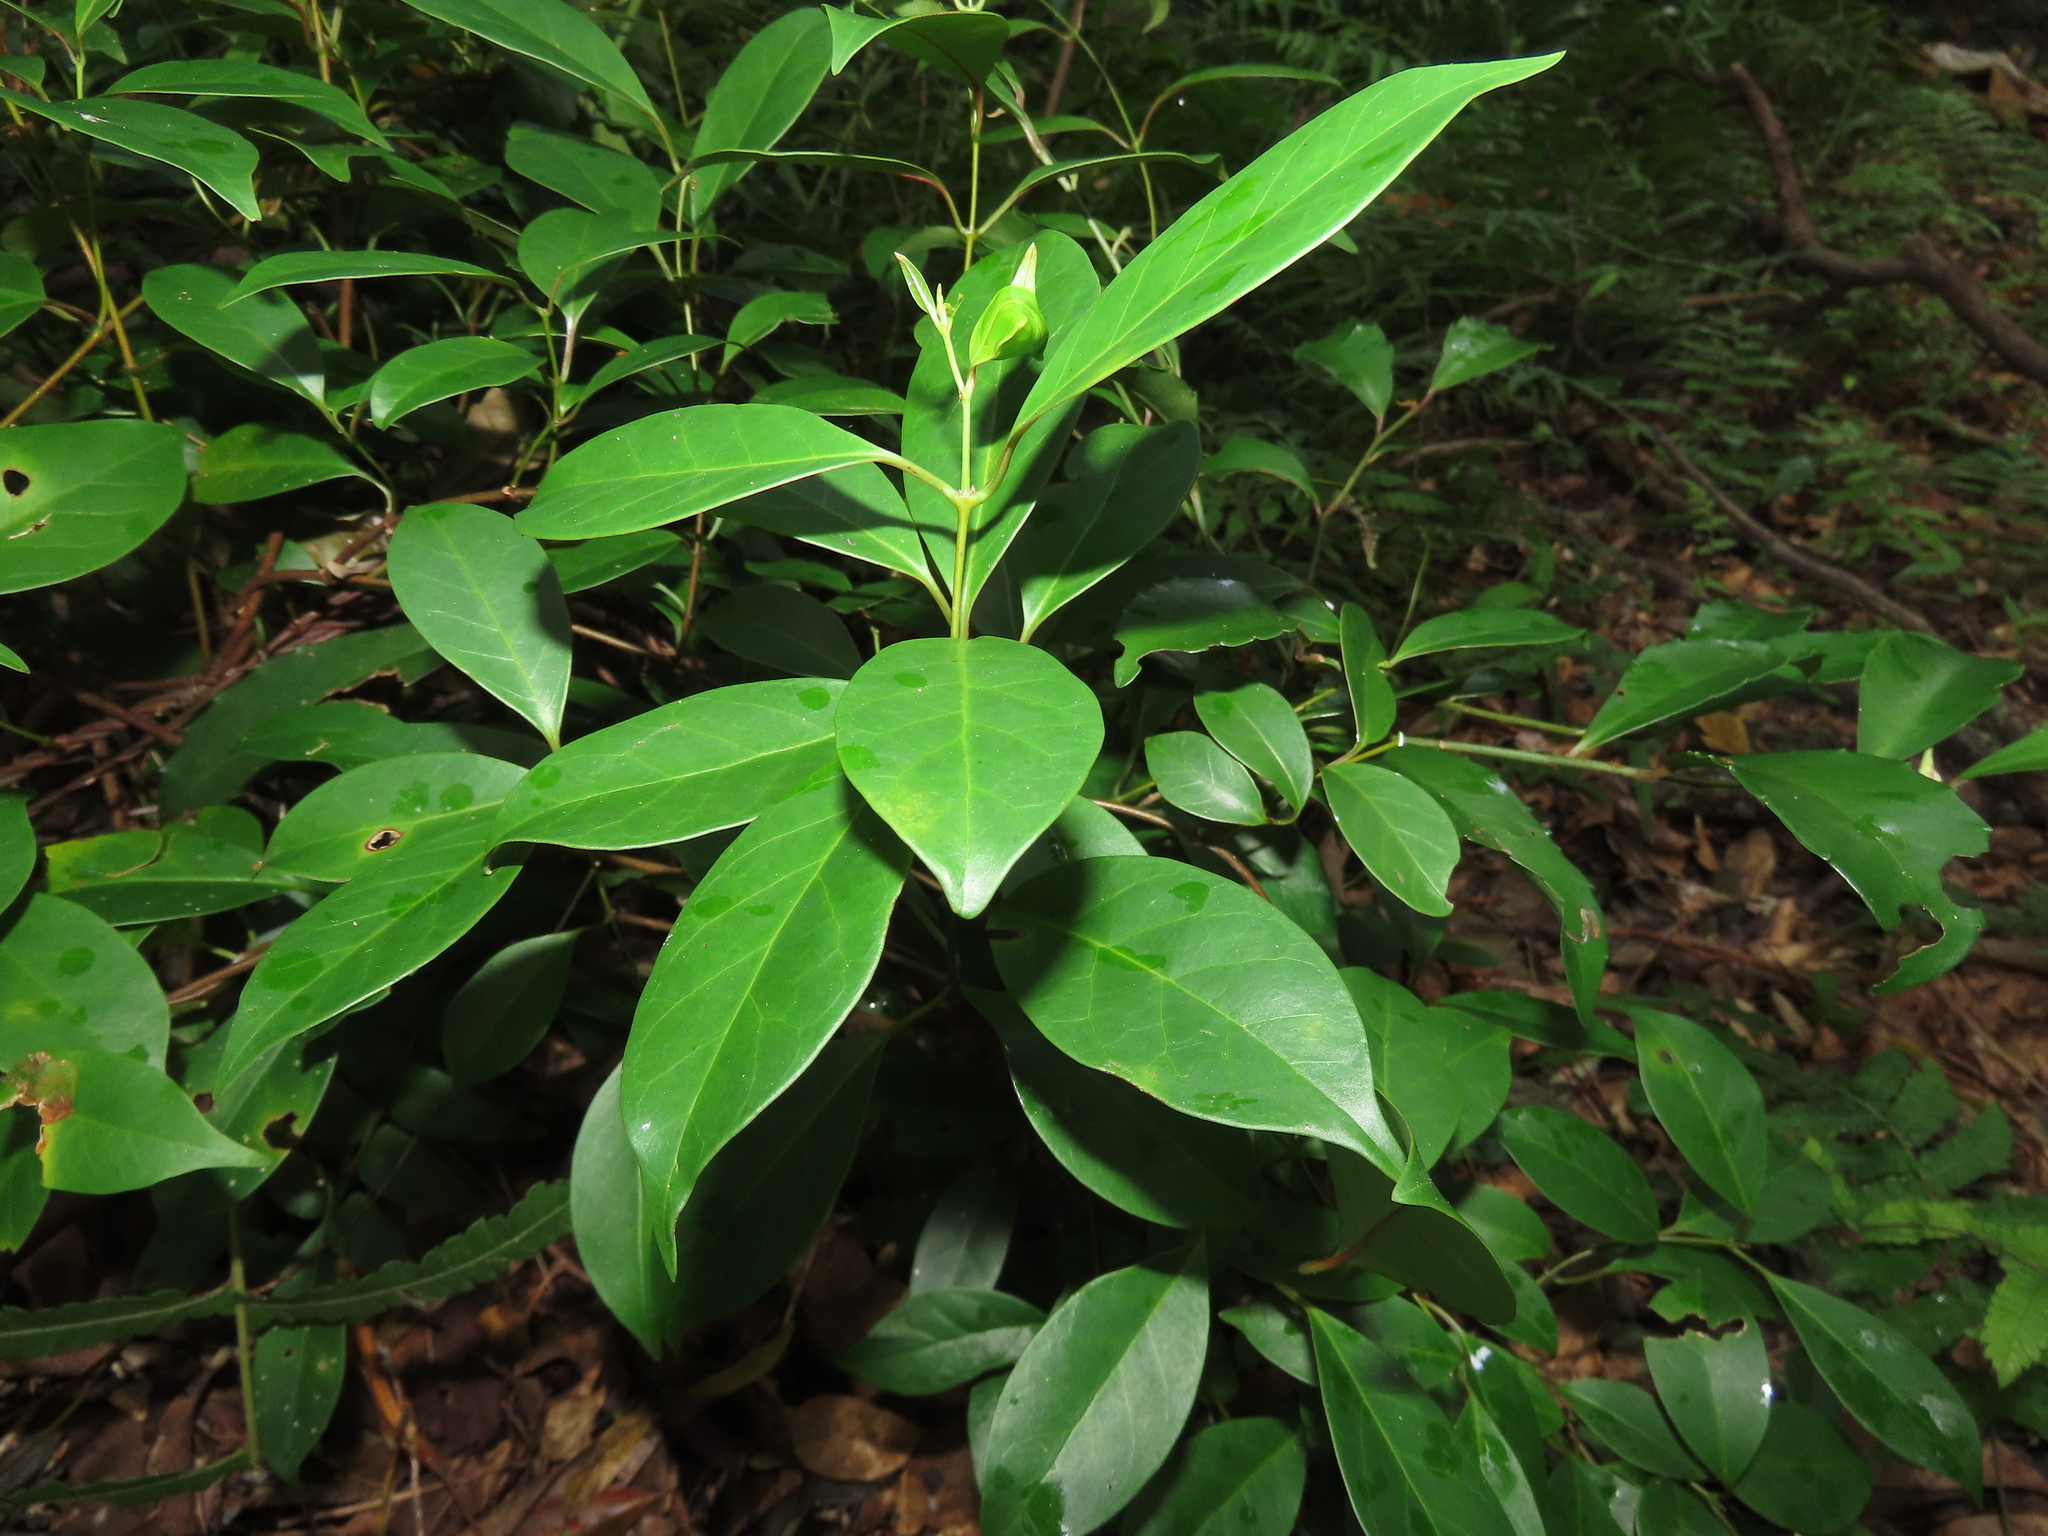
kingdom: Plantae
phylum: Tracheophyta
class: Magnoliopsida
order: Gentianales
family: Apocynaceae
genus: Urceola
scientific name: Urceola rosea
